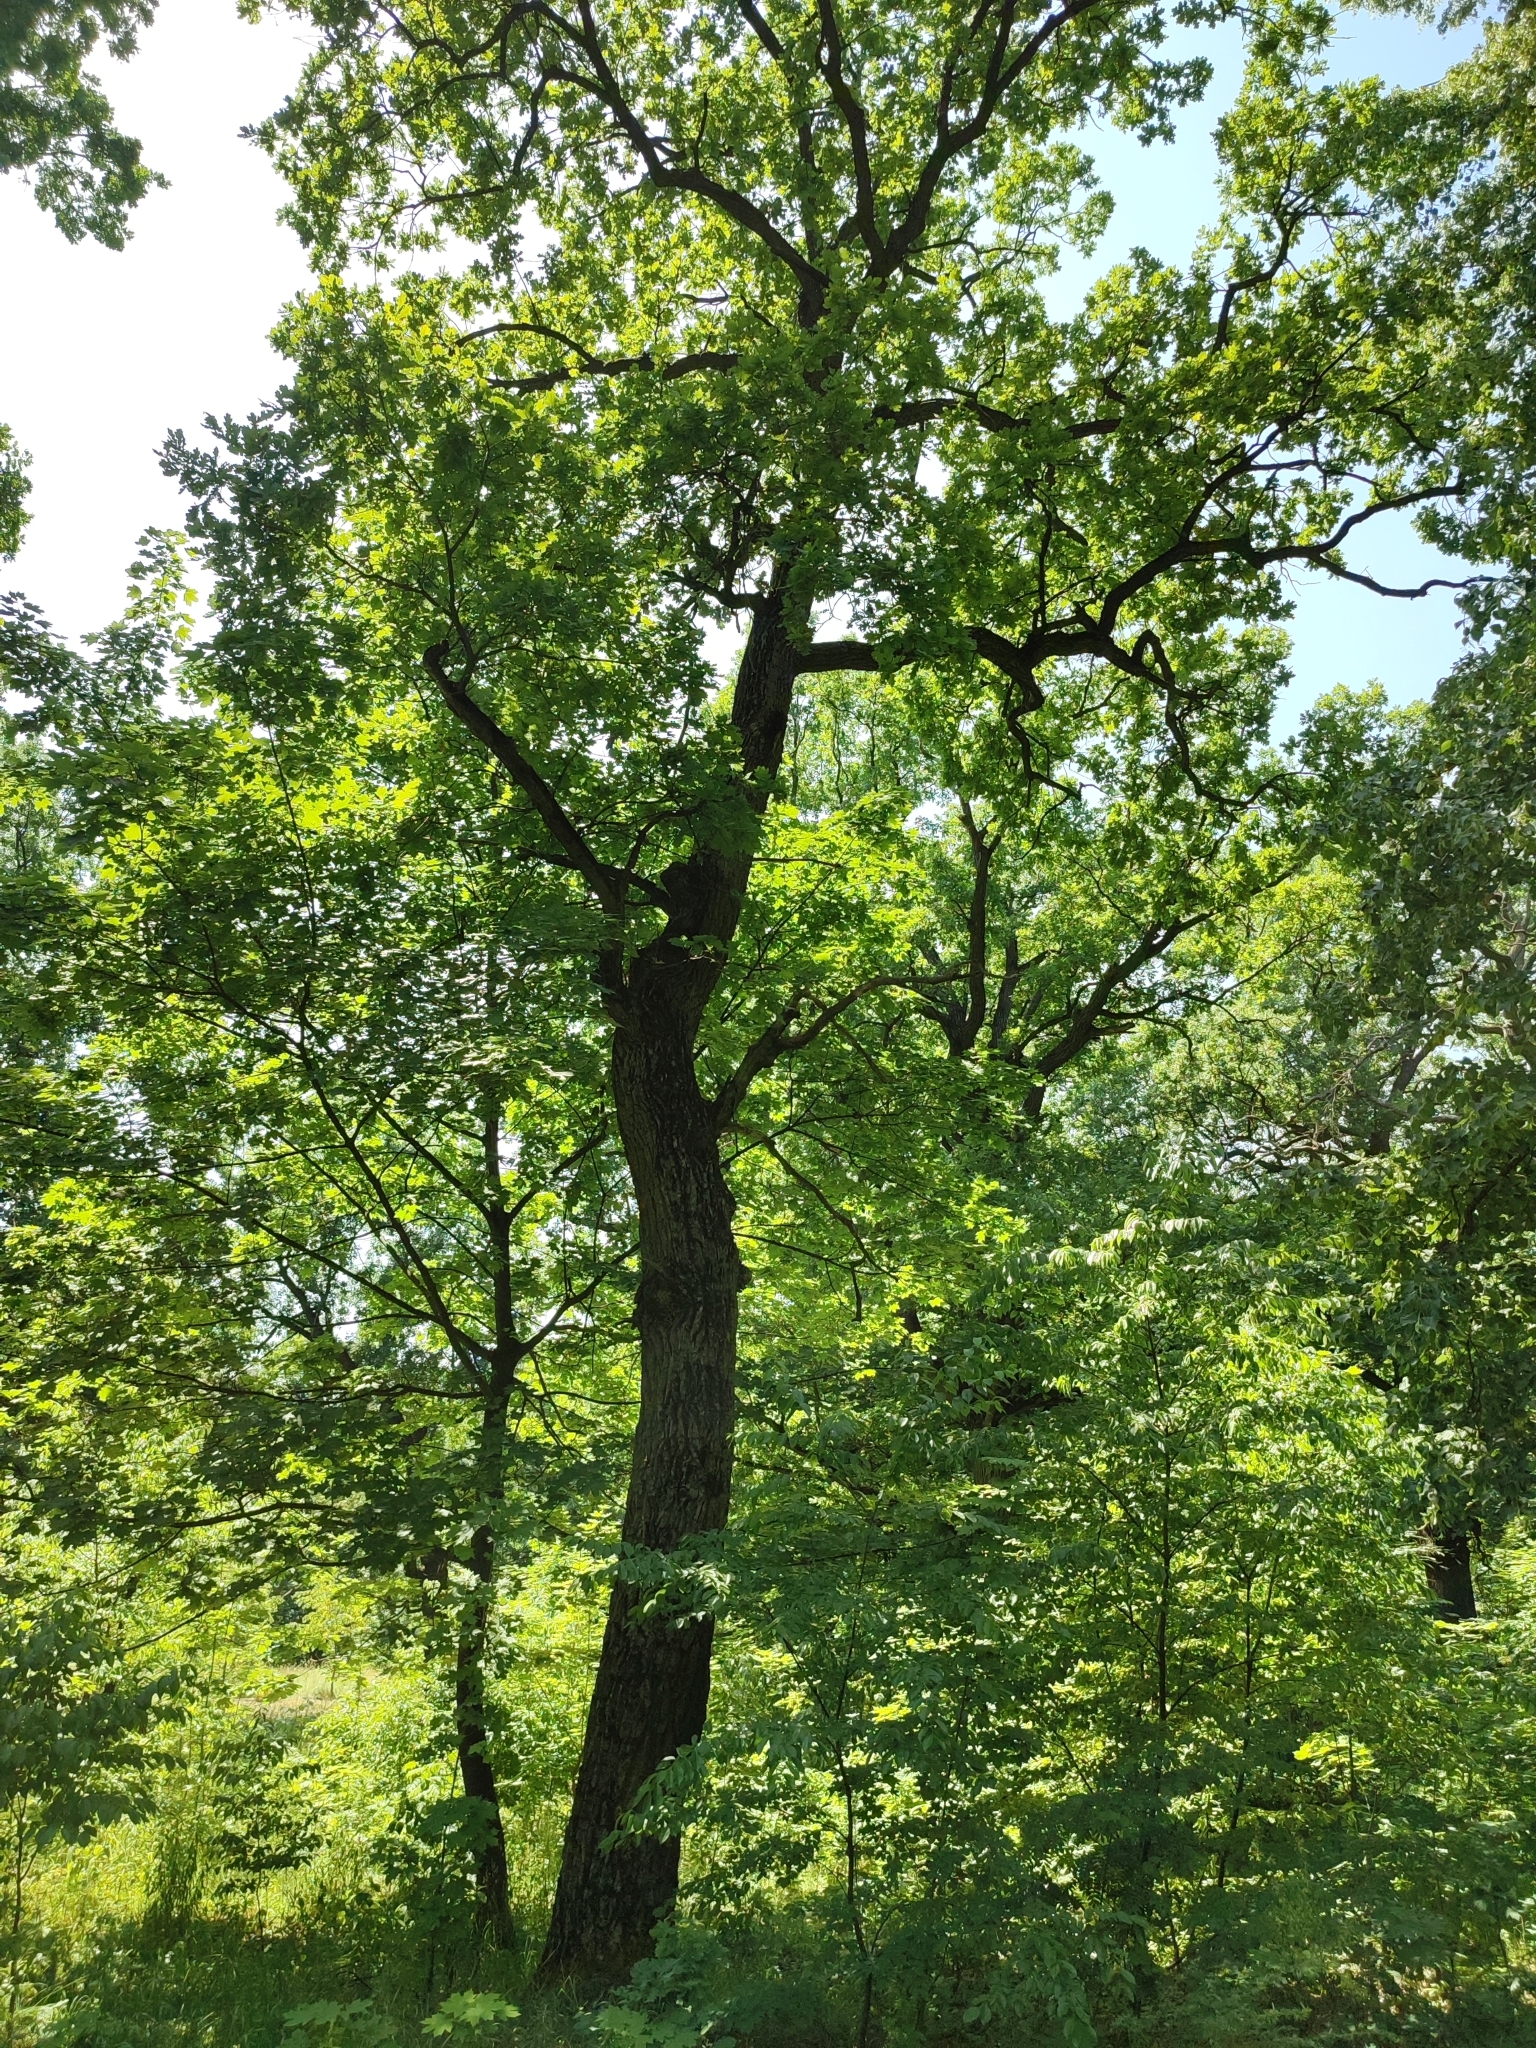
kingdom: Plantae
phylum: Tracheophyta
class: Magnoliopsida
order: Fagales
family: Fagaceae
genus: Quercus
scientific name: Quercus robur
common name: Pedunculate oak
